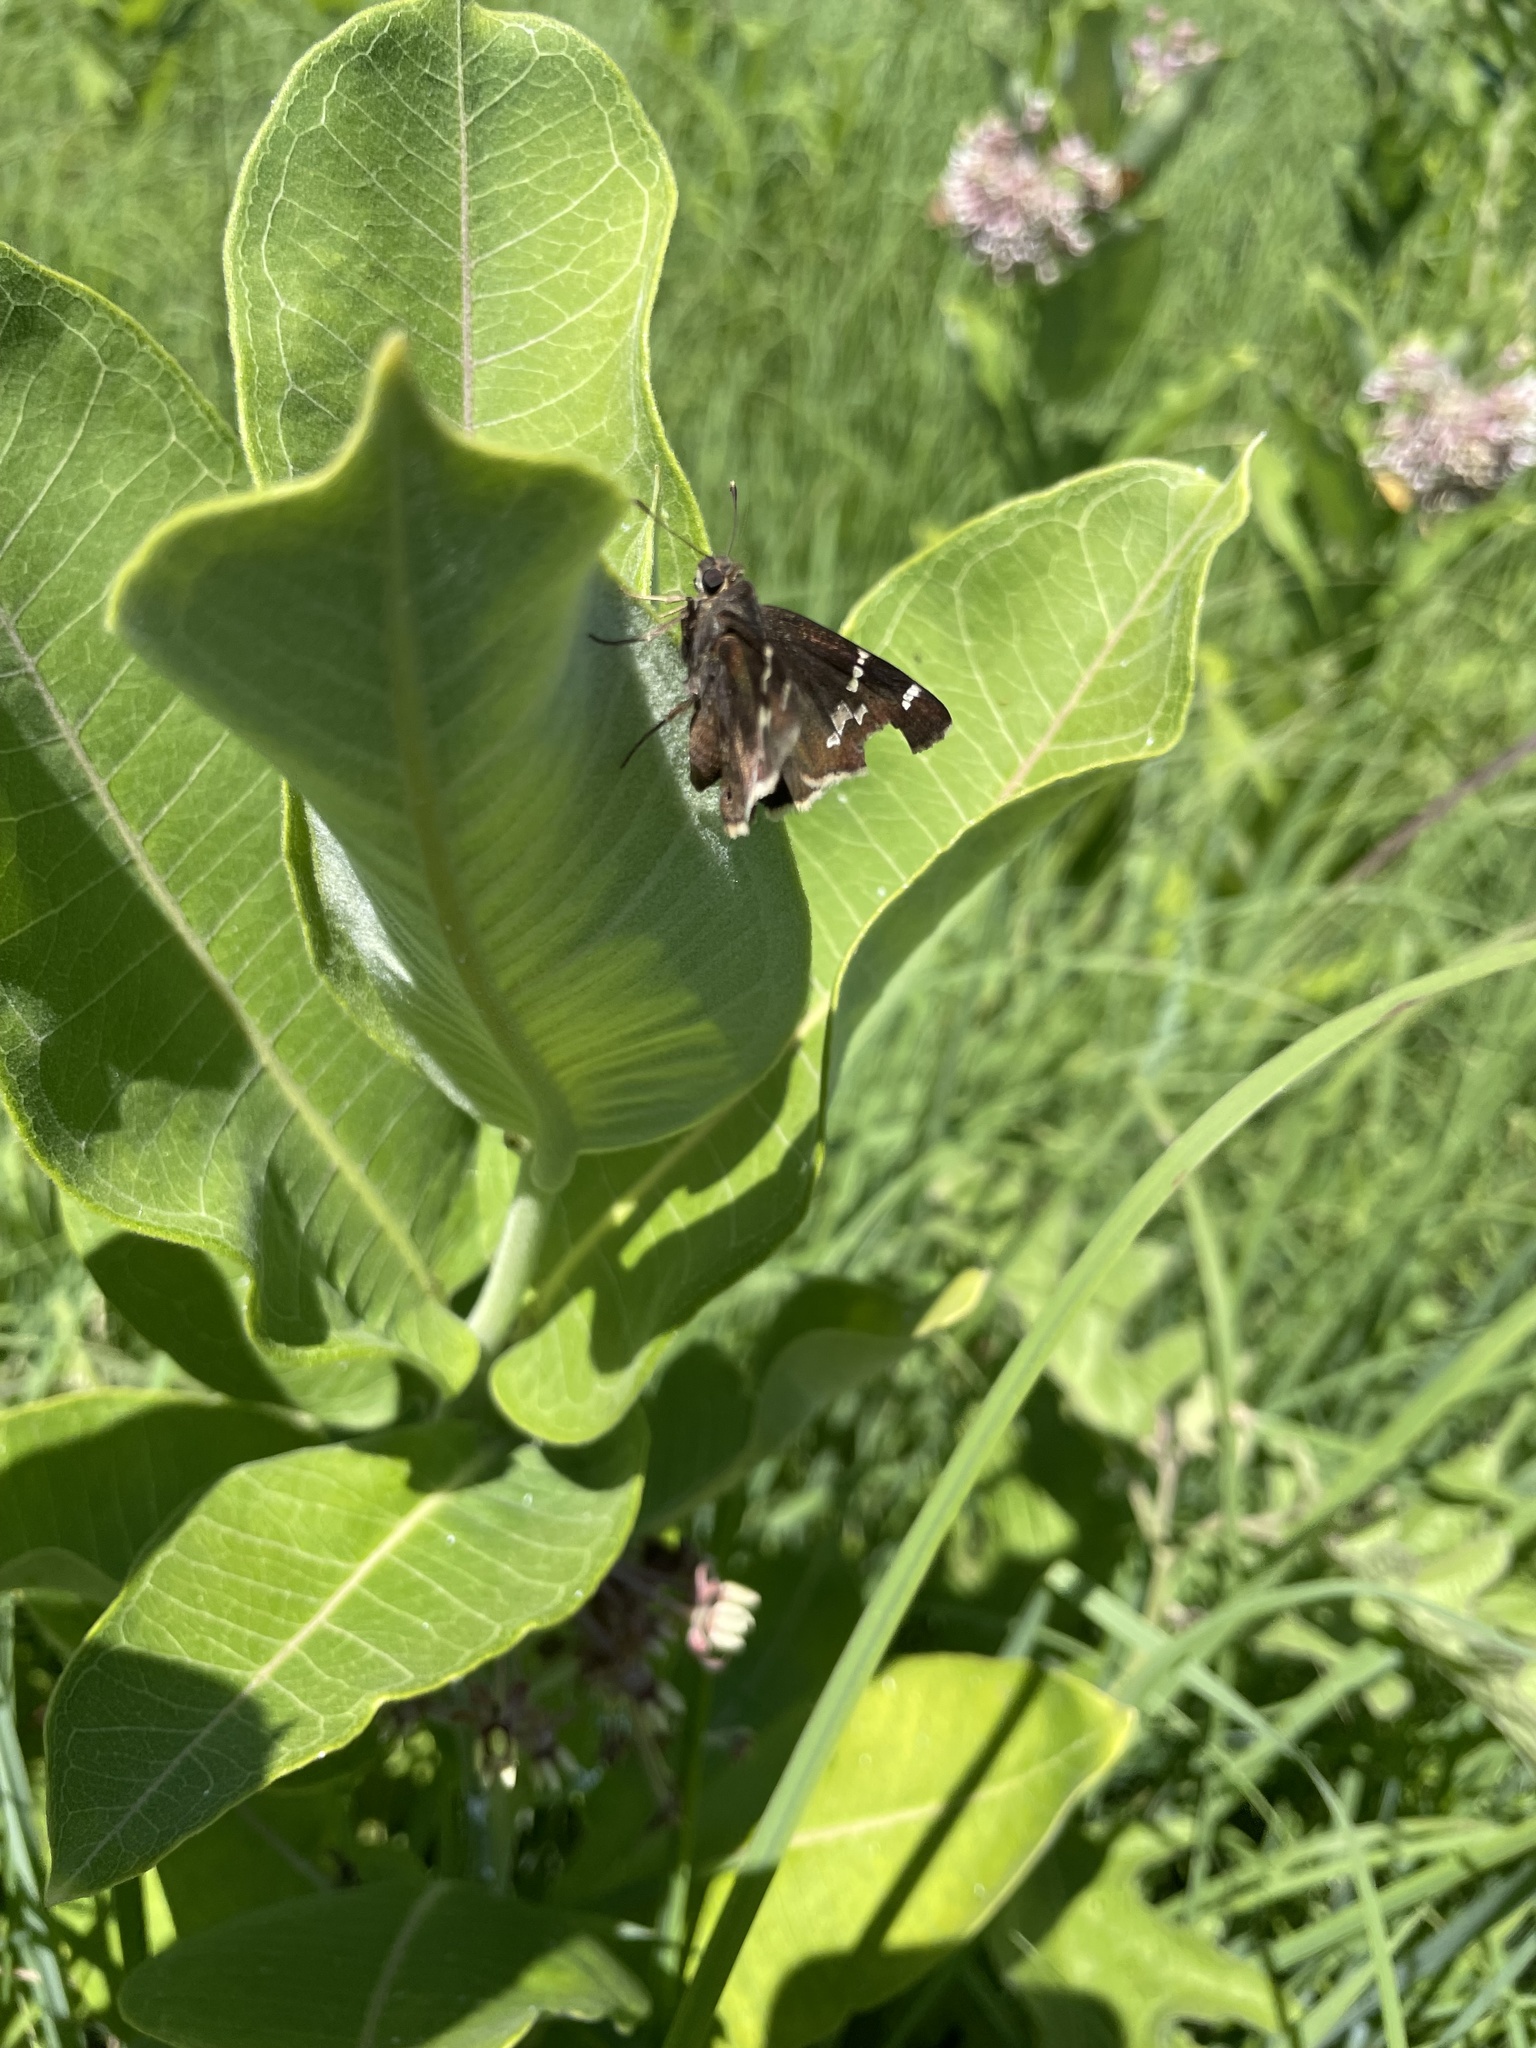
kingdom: Animalia
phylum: Arthropoda
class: Insecta
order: Lepidoptera
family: Hesperiidae
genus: Thorybes
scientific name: Thorybes daunus
